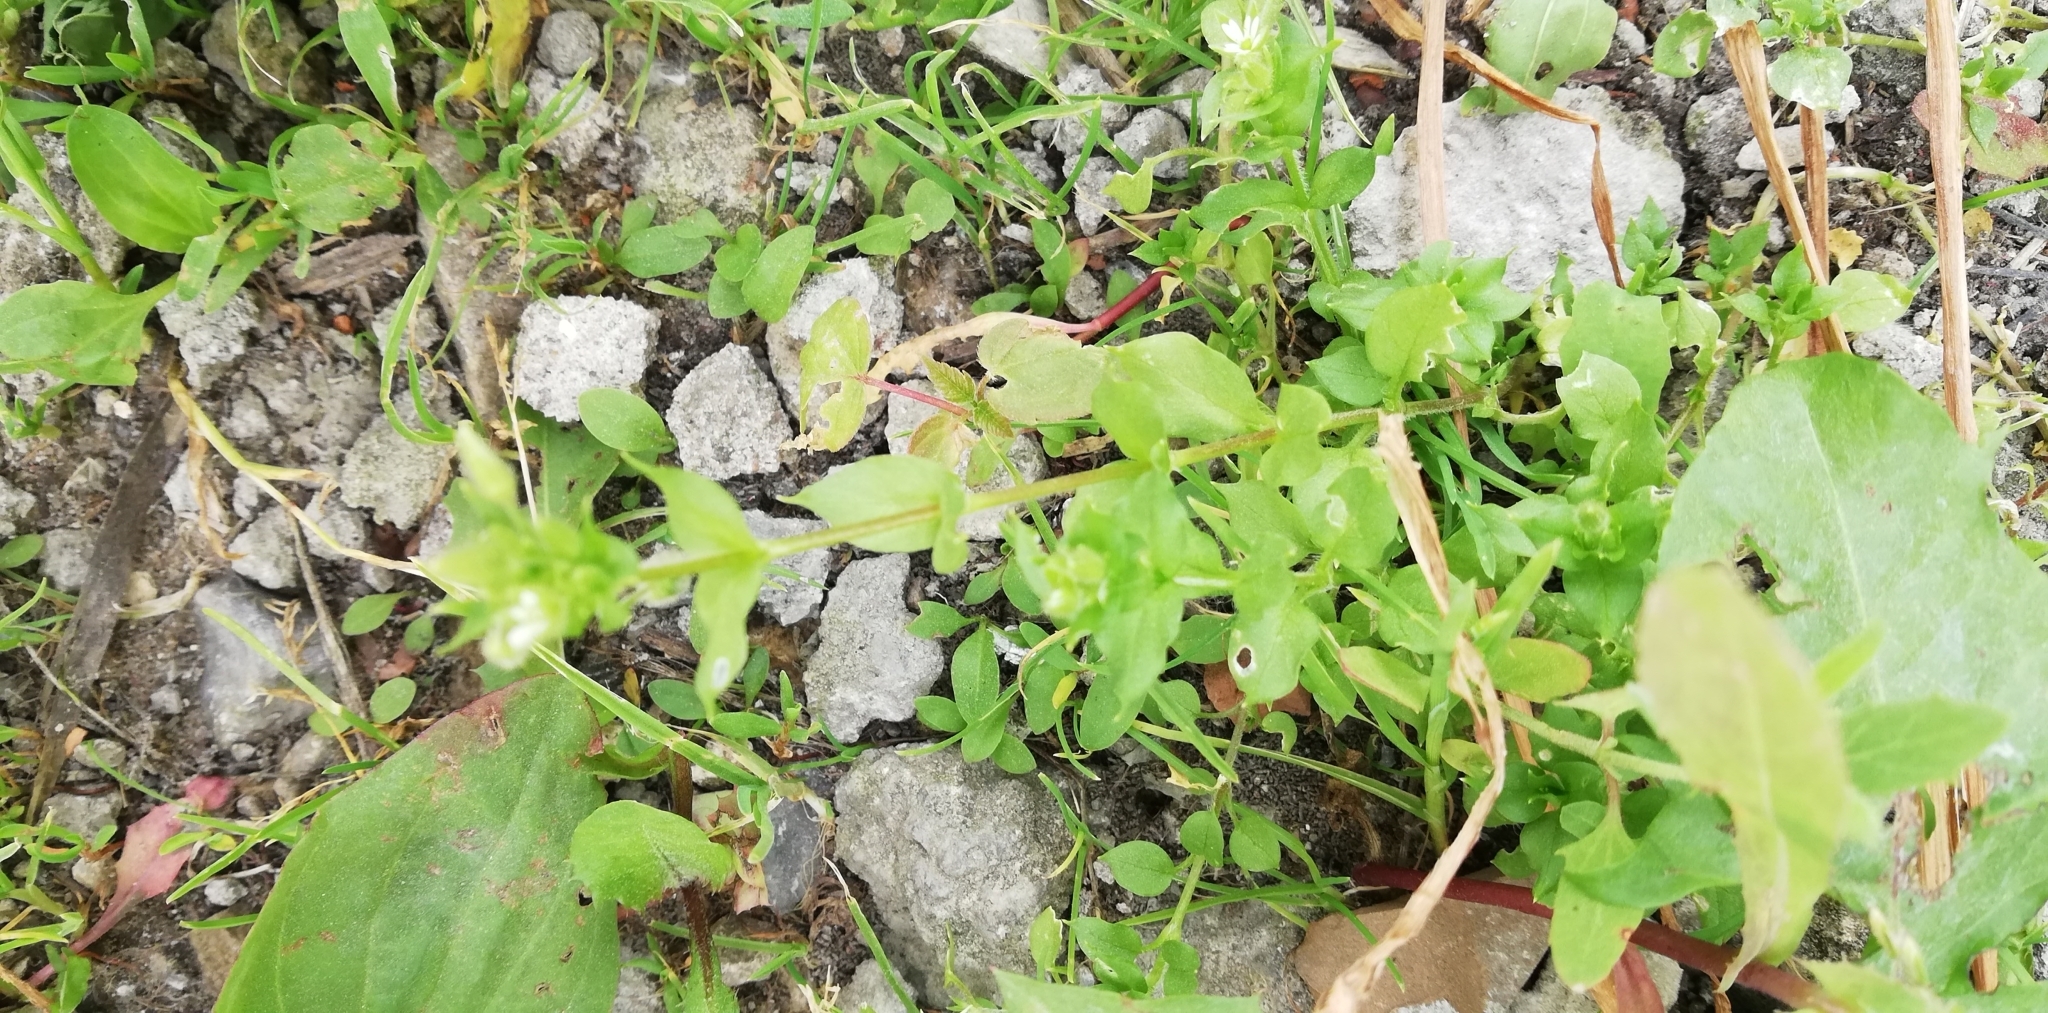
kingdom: Plantae
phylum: Tracheophyta
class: Magnoliopsida
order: Caryophyllales
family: Caryophyllaceae
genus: Stellaria
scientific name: Stellaria media
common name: Common chickweed
